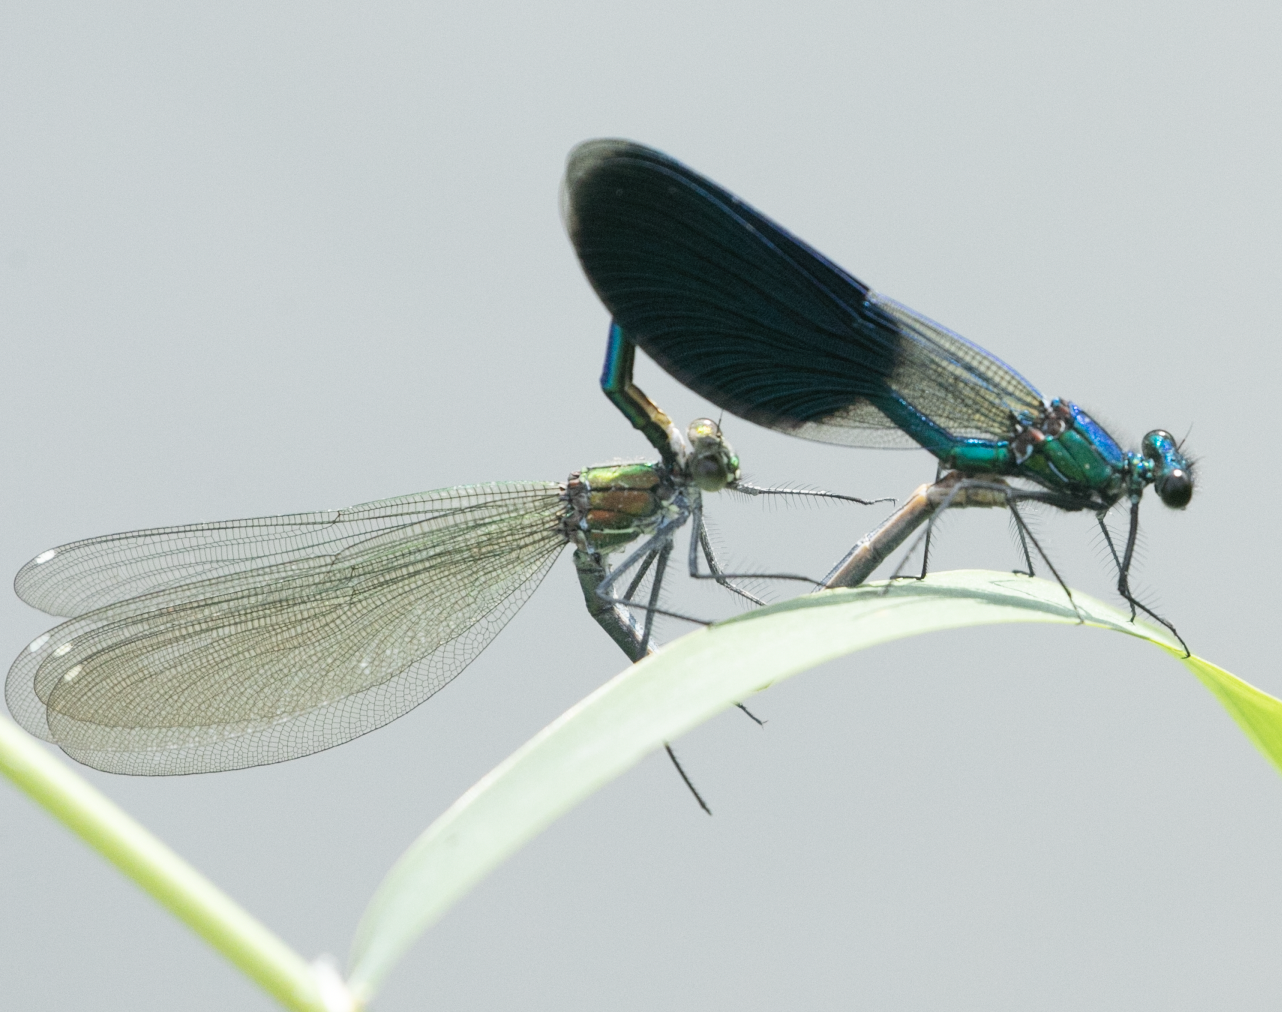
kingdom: Animalia
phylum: Arthropoda
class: Insecta
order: Odonata
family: Calopterygidae
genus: Calopteryx
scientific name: Calopteryx splendens
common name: Banded demoiselle
